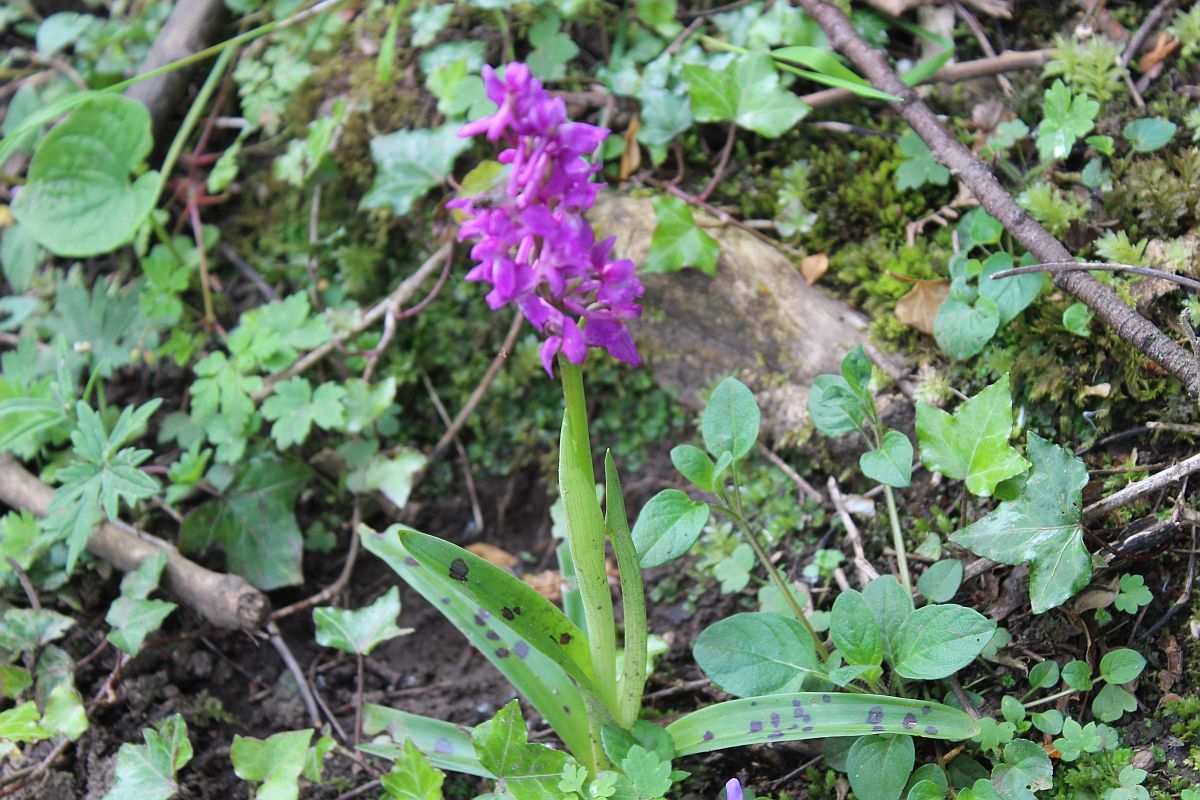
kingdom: Plantae
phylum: Tracheophyta
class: Liliopsida
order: Asparagales
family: Orchidaceae
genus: Orchis
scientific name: Orchis mascula
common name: Early-purple orchid
